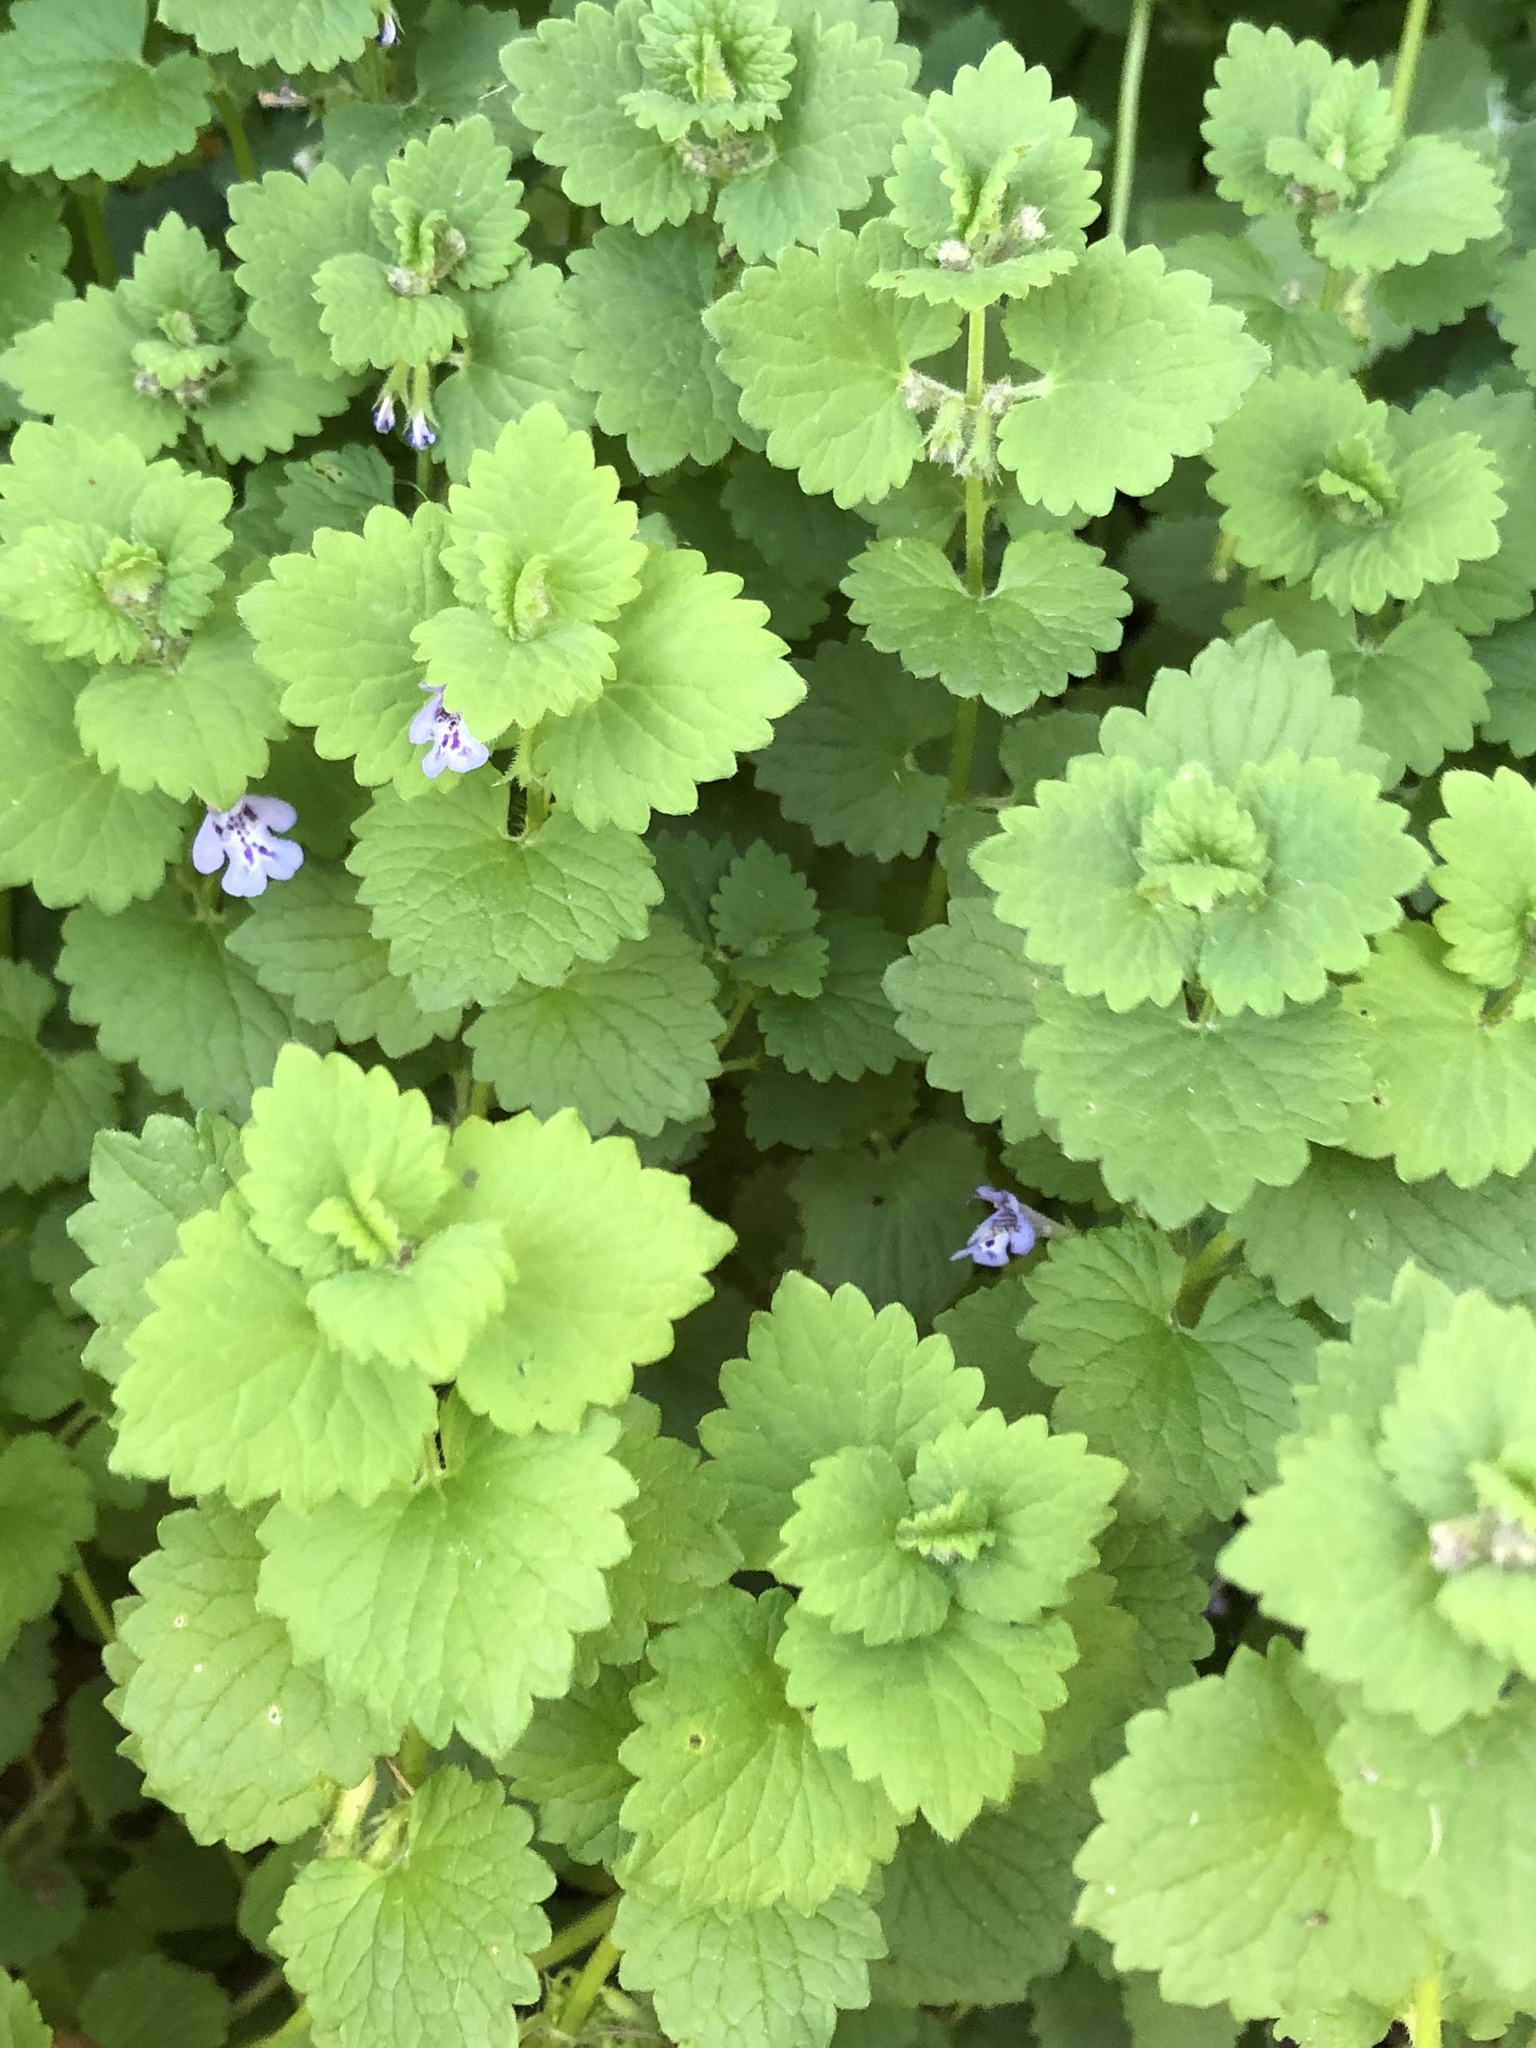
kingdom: Plantae
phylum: Tracheophyta
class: Magnoliopsida
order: Lamiales
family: Lamiaceae
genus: Glechoma
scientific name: Glechoma hederacea
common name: Ground ivy
